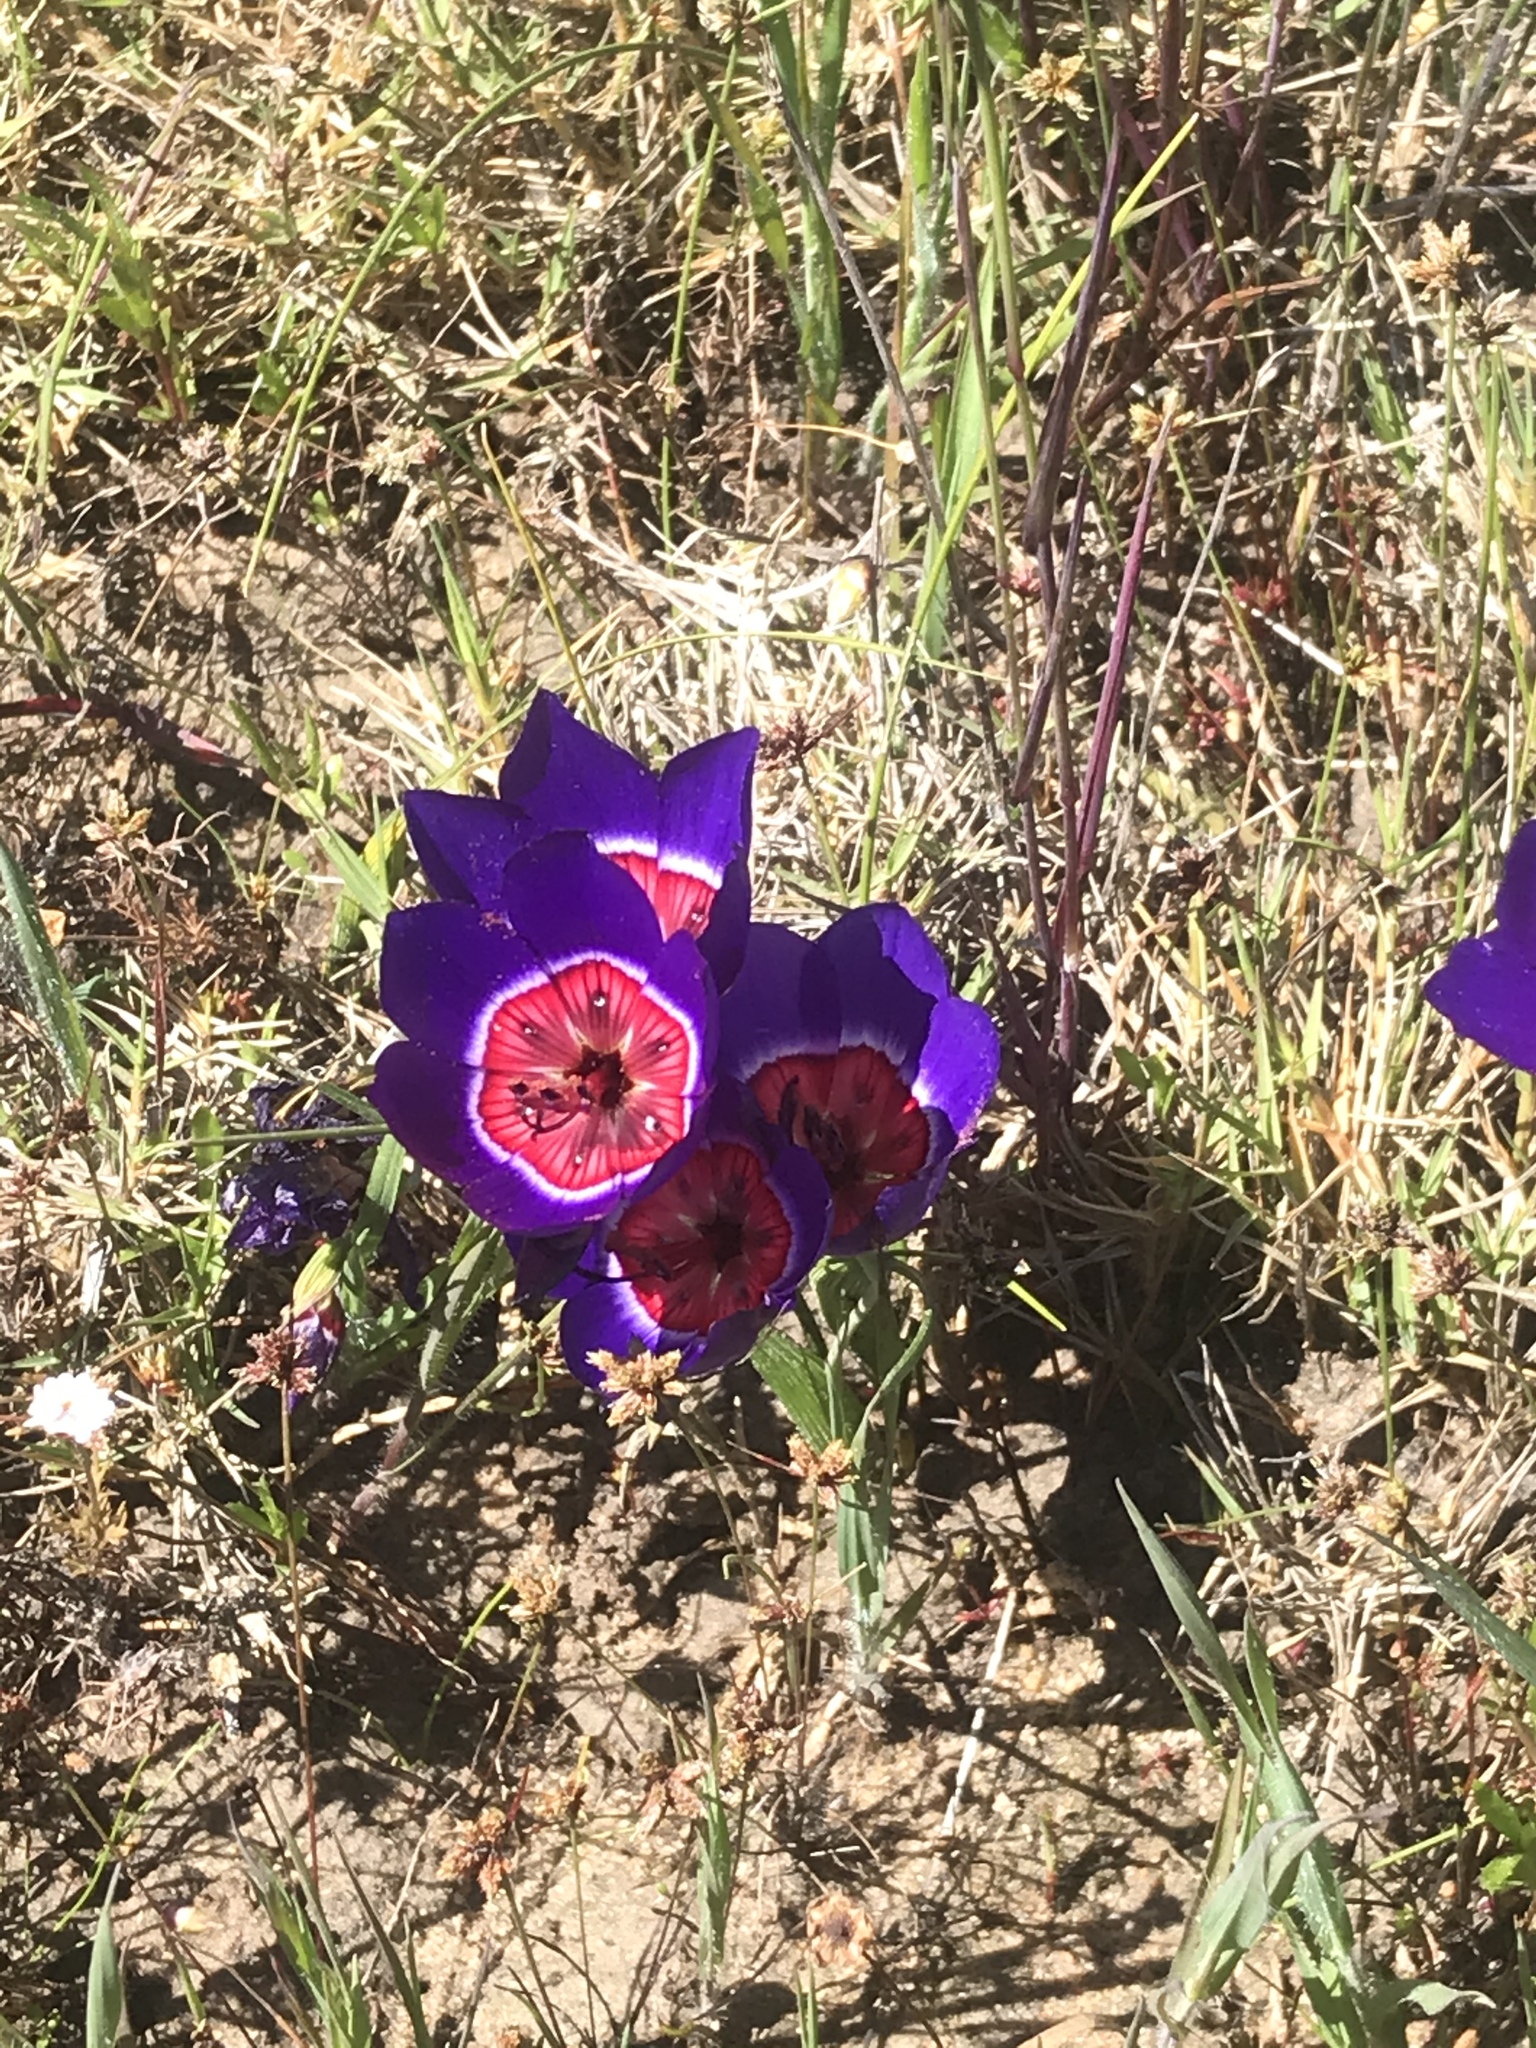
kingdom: Plantae
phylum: Tracheophyta
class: Liliopsida
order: Asparagales
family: Iridaceae
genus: Geissorhiza
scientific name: Geissorhiza radians
